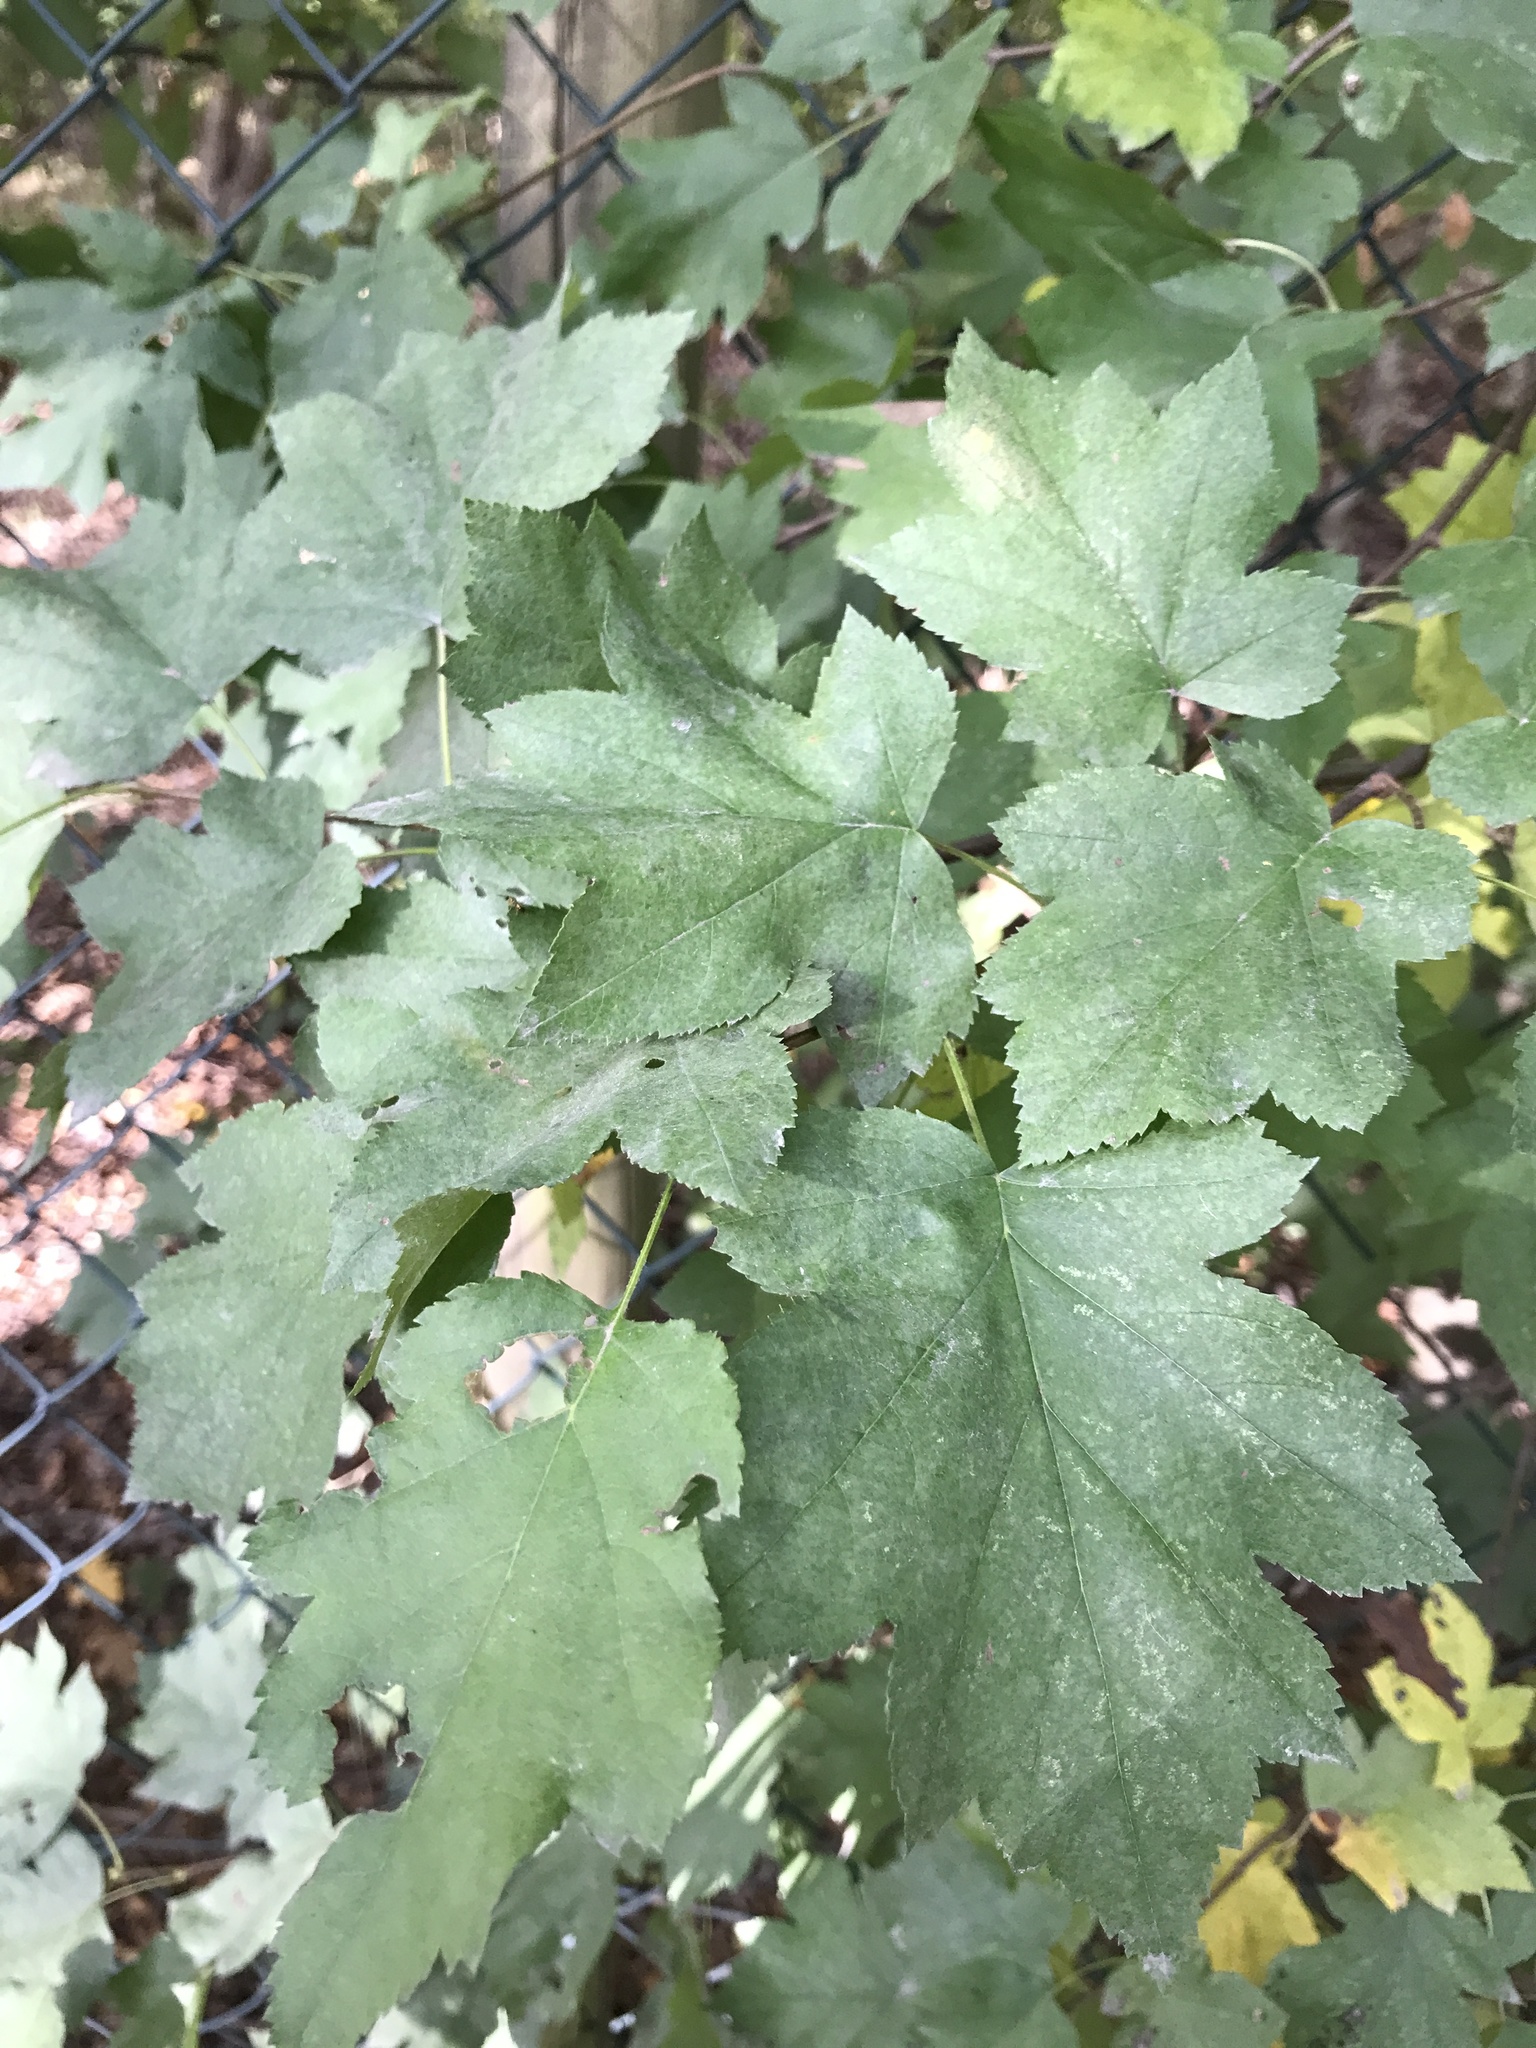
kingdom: Plantae
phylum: Tracheophyta
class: Magnoliopsida
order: Rosales
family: Rosaceae
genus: Torminalis
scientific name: Torminalis glaberrima
